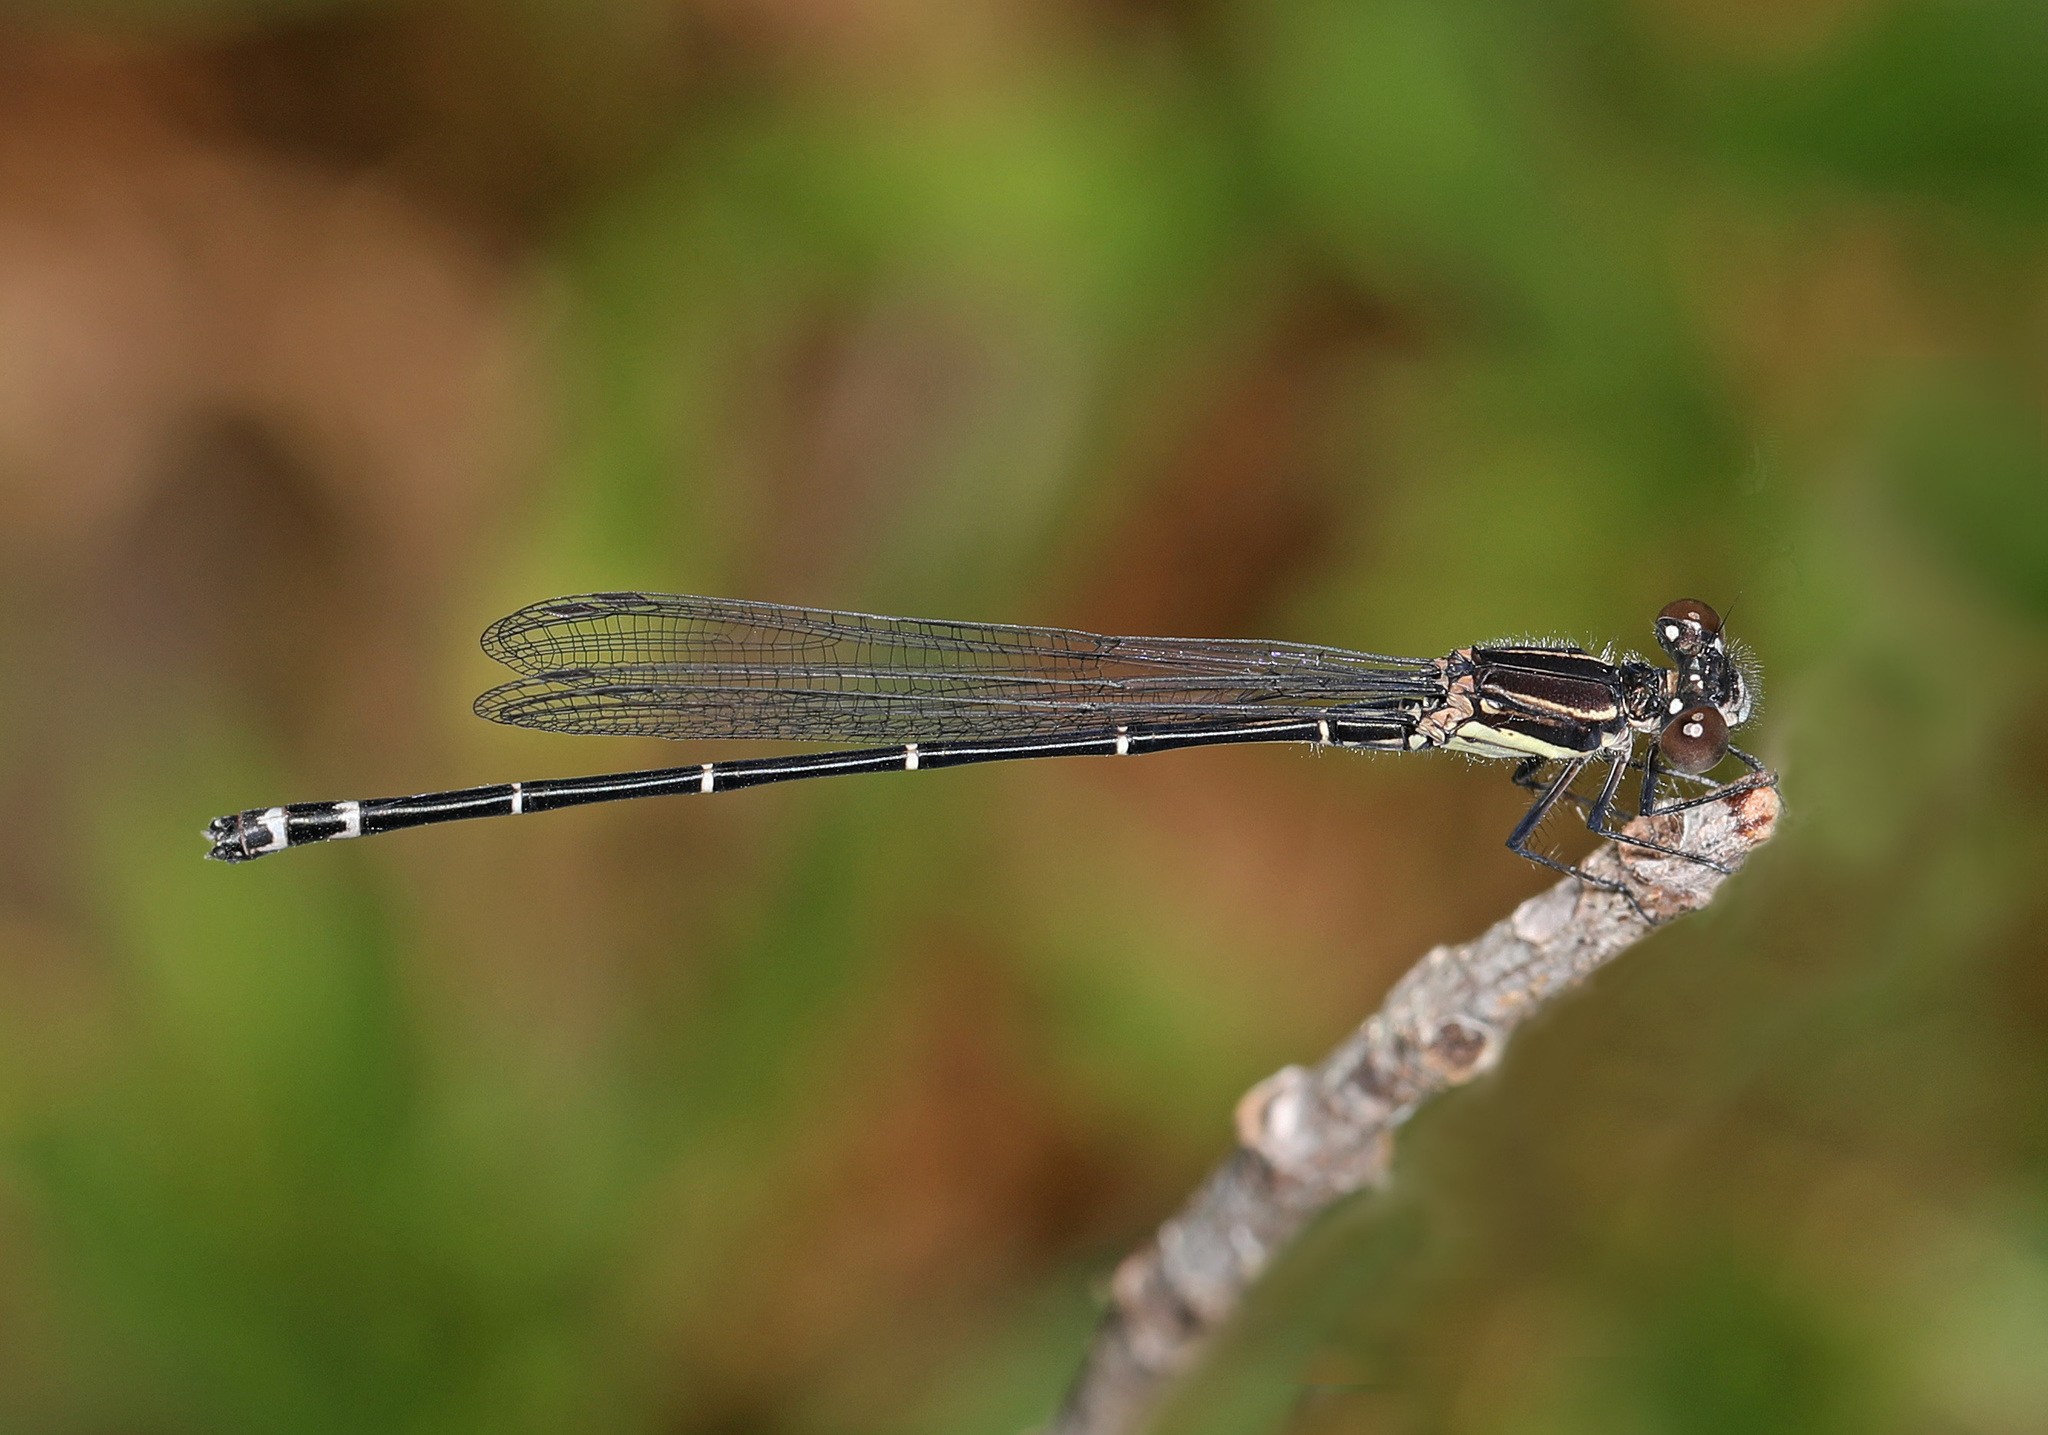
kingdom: Animalia
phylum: Arthropoda
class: Insecta
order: Odonata
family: Coenagrionidae
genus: Argia
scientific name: Argia translata
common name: Dusky dancer
